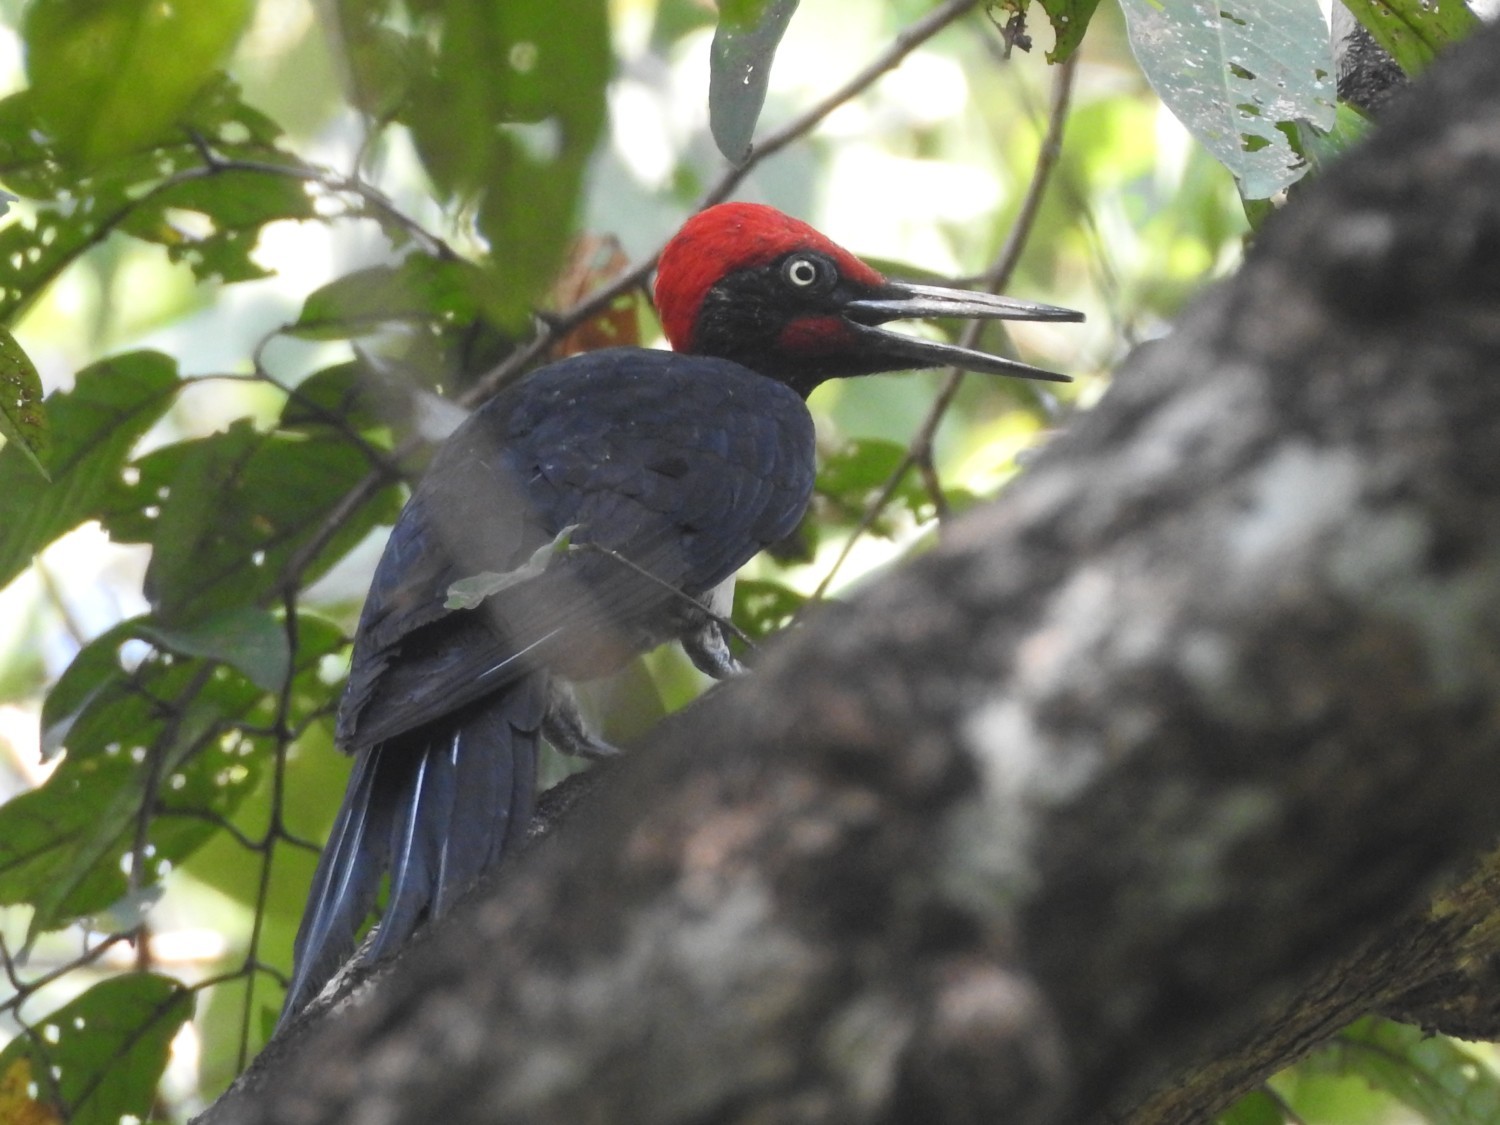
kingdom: Animalia
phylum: Chordata
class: Aves
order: Piciformes
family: Picidae
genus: Dryocopus
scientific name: Dryocopus javensis
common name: White-bellied woodpecker
